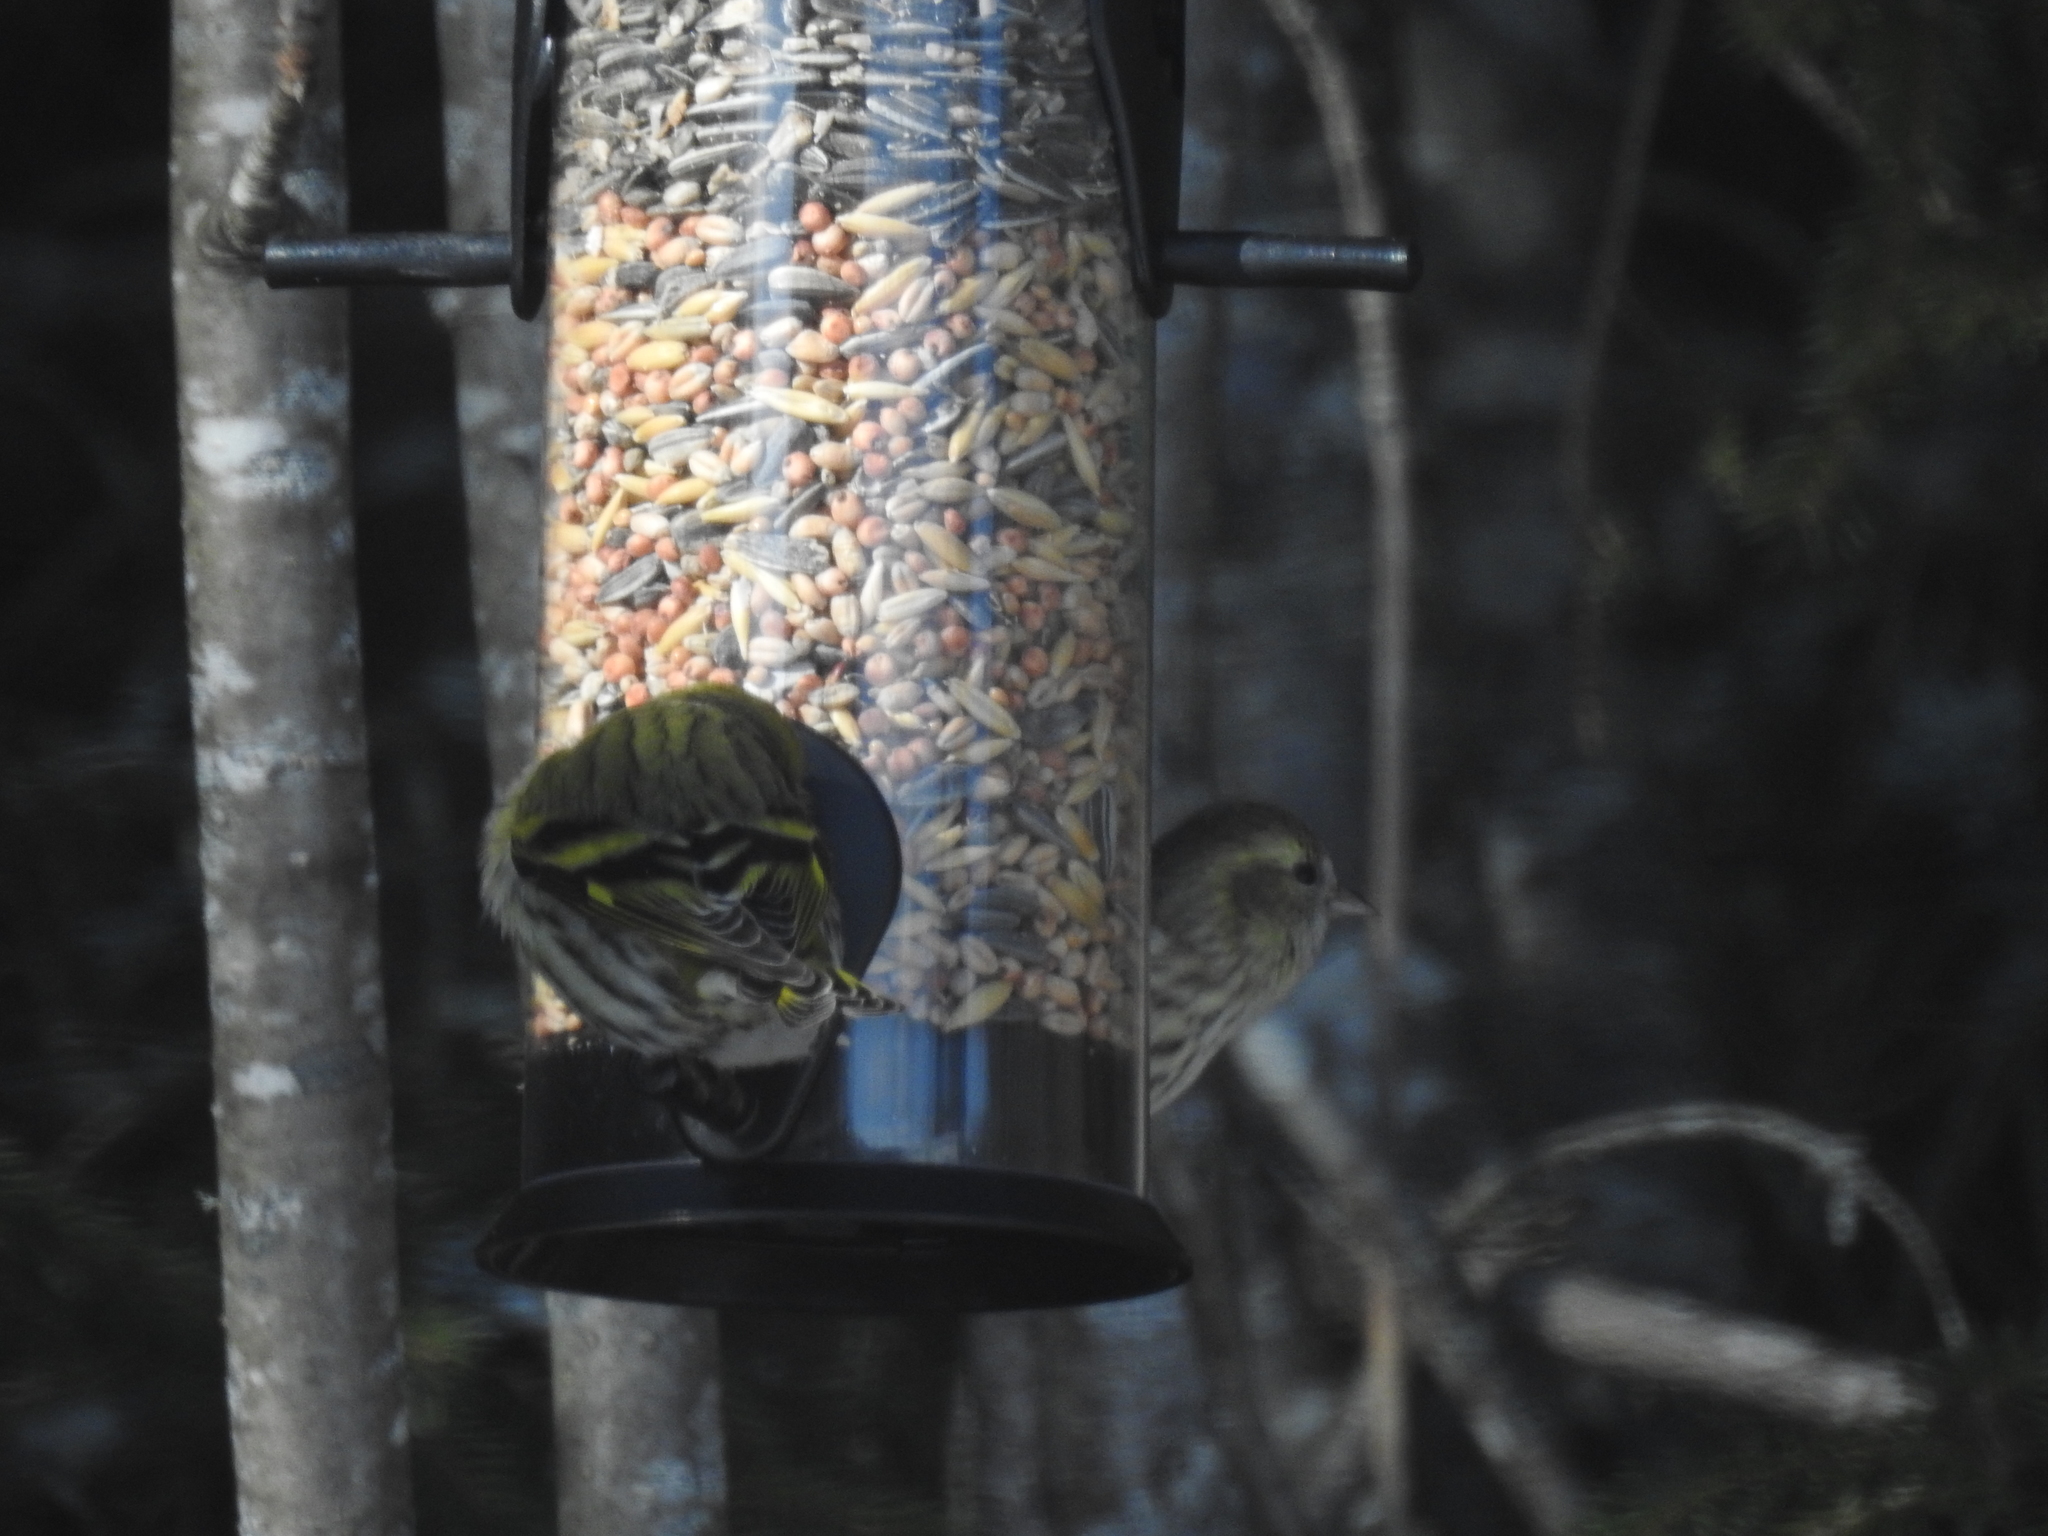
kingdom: Animalia
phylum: Chordata
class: Aves
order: Passeriformes
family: Fringillidae
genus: Spinus
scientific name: Spinus spinus
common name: Eurasian siskin
